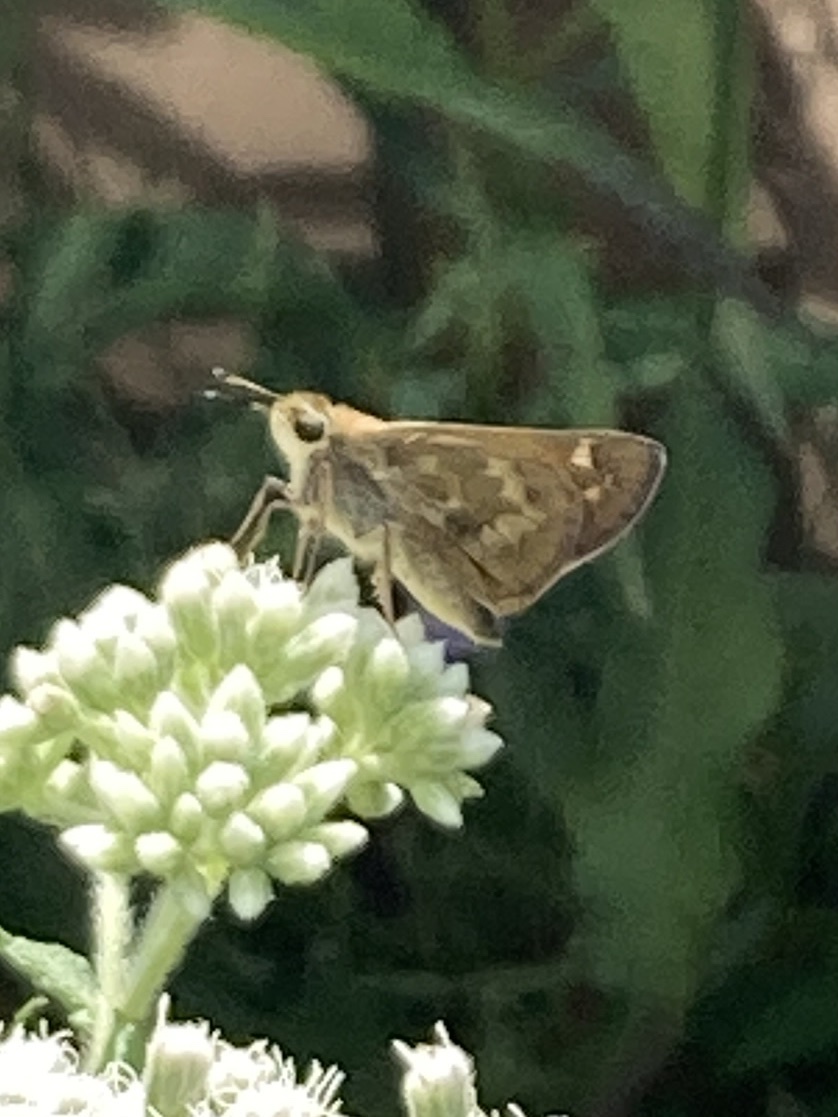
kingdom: Animalia
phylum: Arthropoda
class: Insecta
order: Lepidoptera
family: Hesperiidae
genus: Atalopedes
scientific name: Atalopedes
